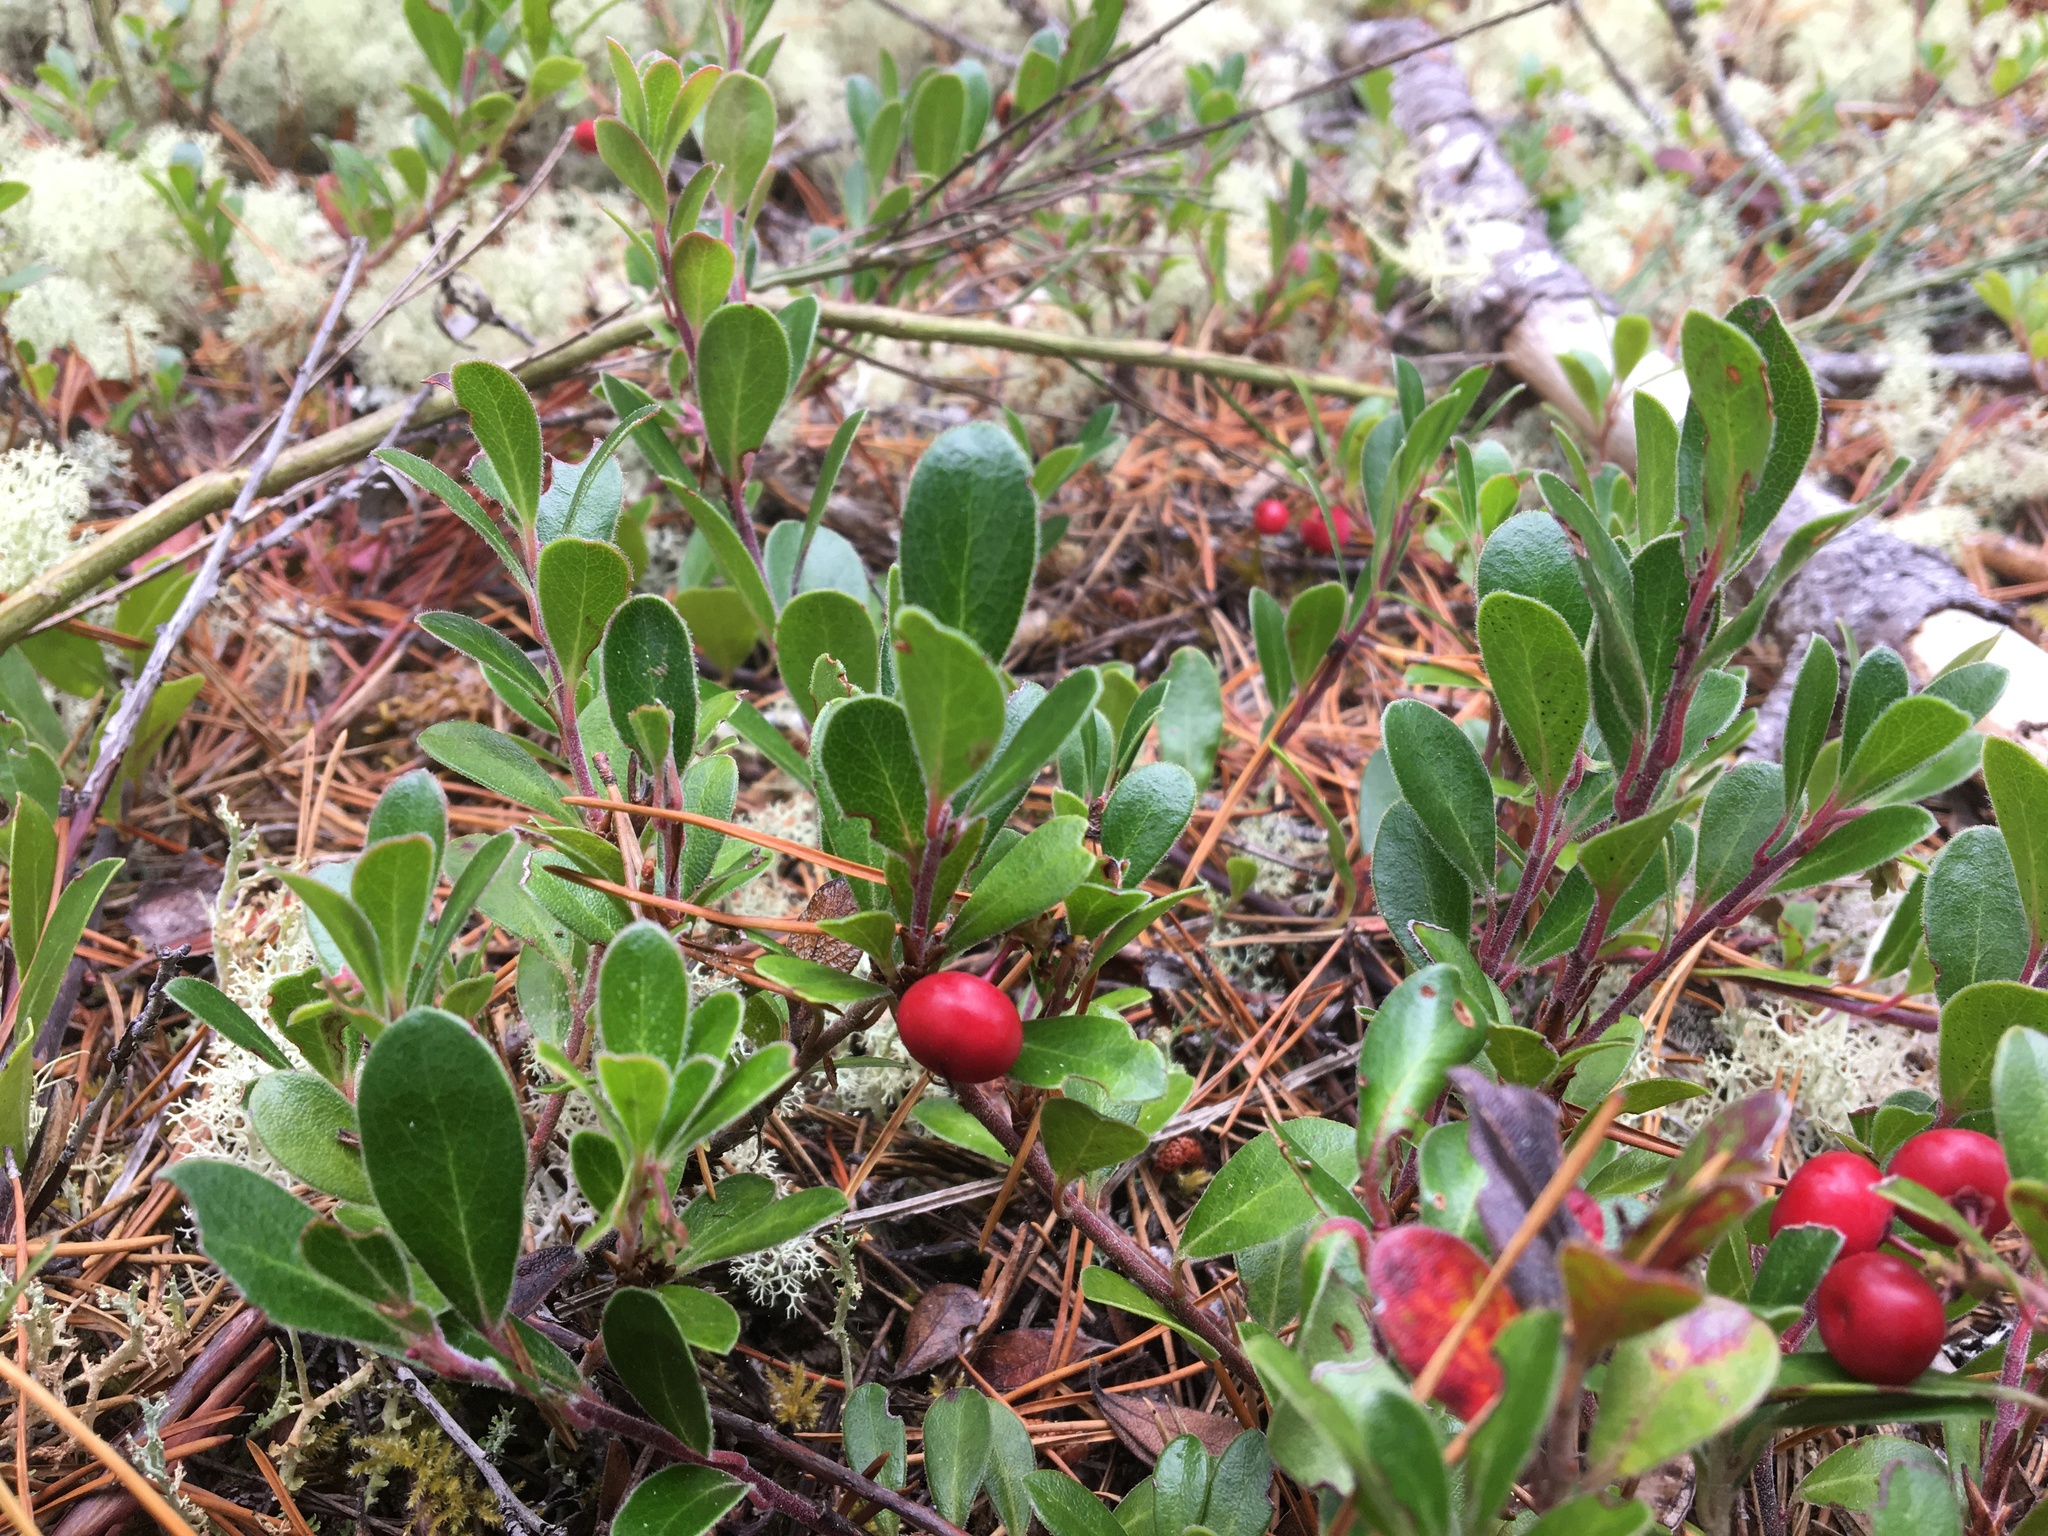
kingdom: Plantae
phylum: Tracheophyta
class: Magnoliopsida
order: Ericales
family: Ericaceae
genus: Arctostaphylos
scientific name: Arctostaphylos uva-ursi
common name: Bearberry
